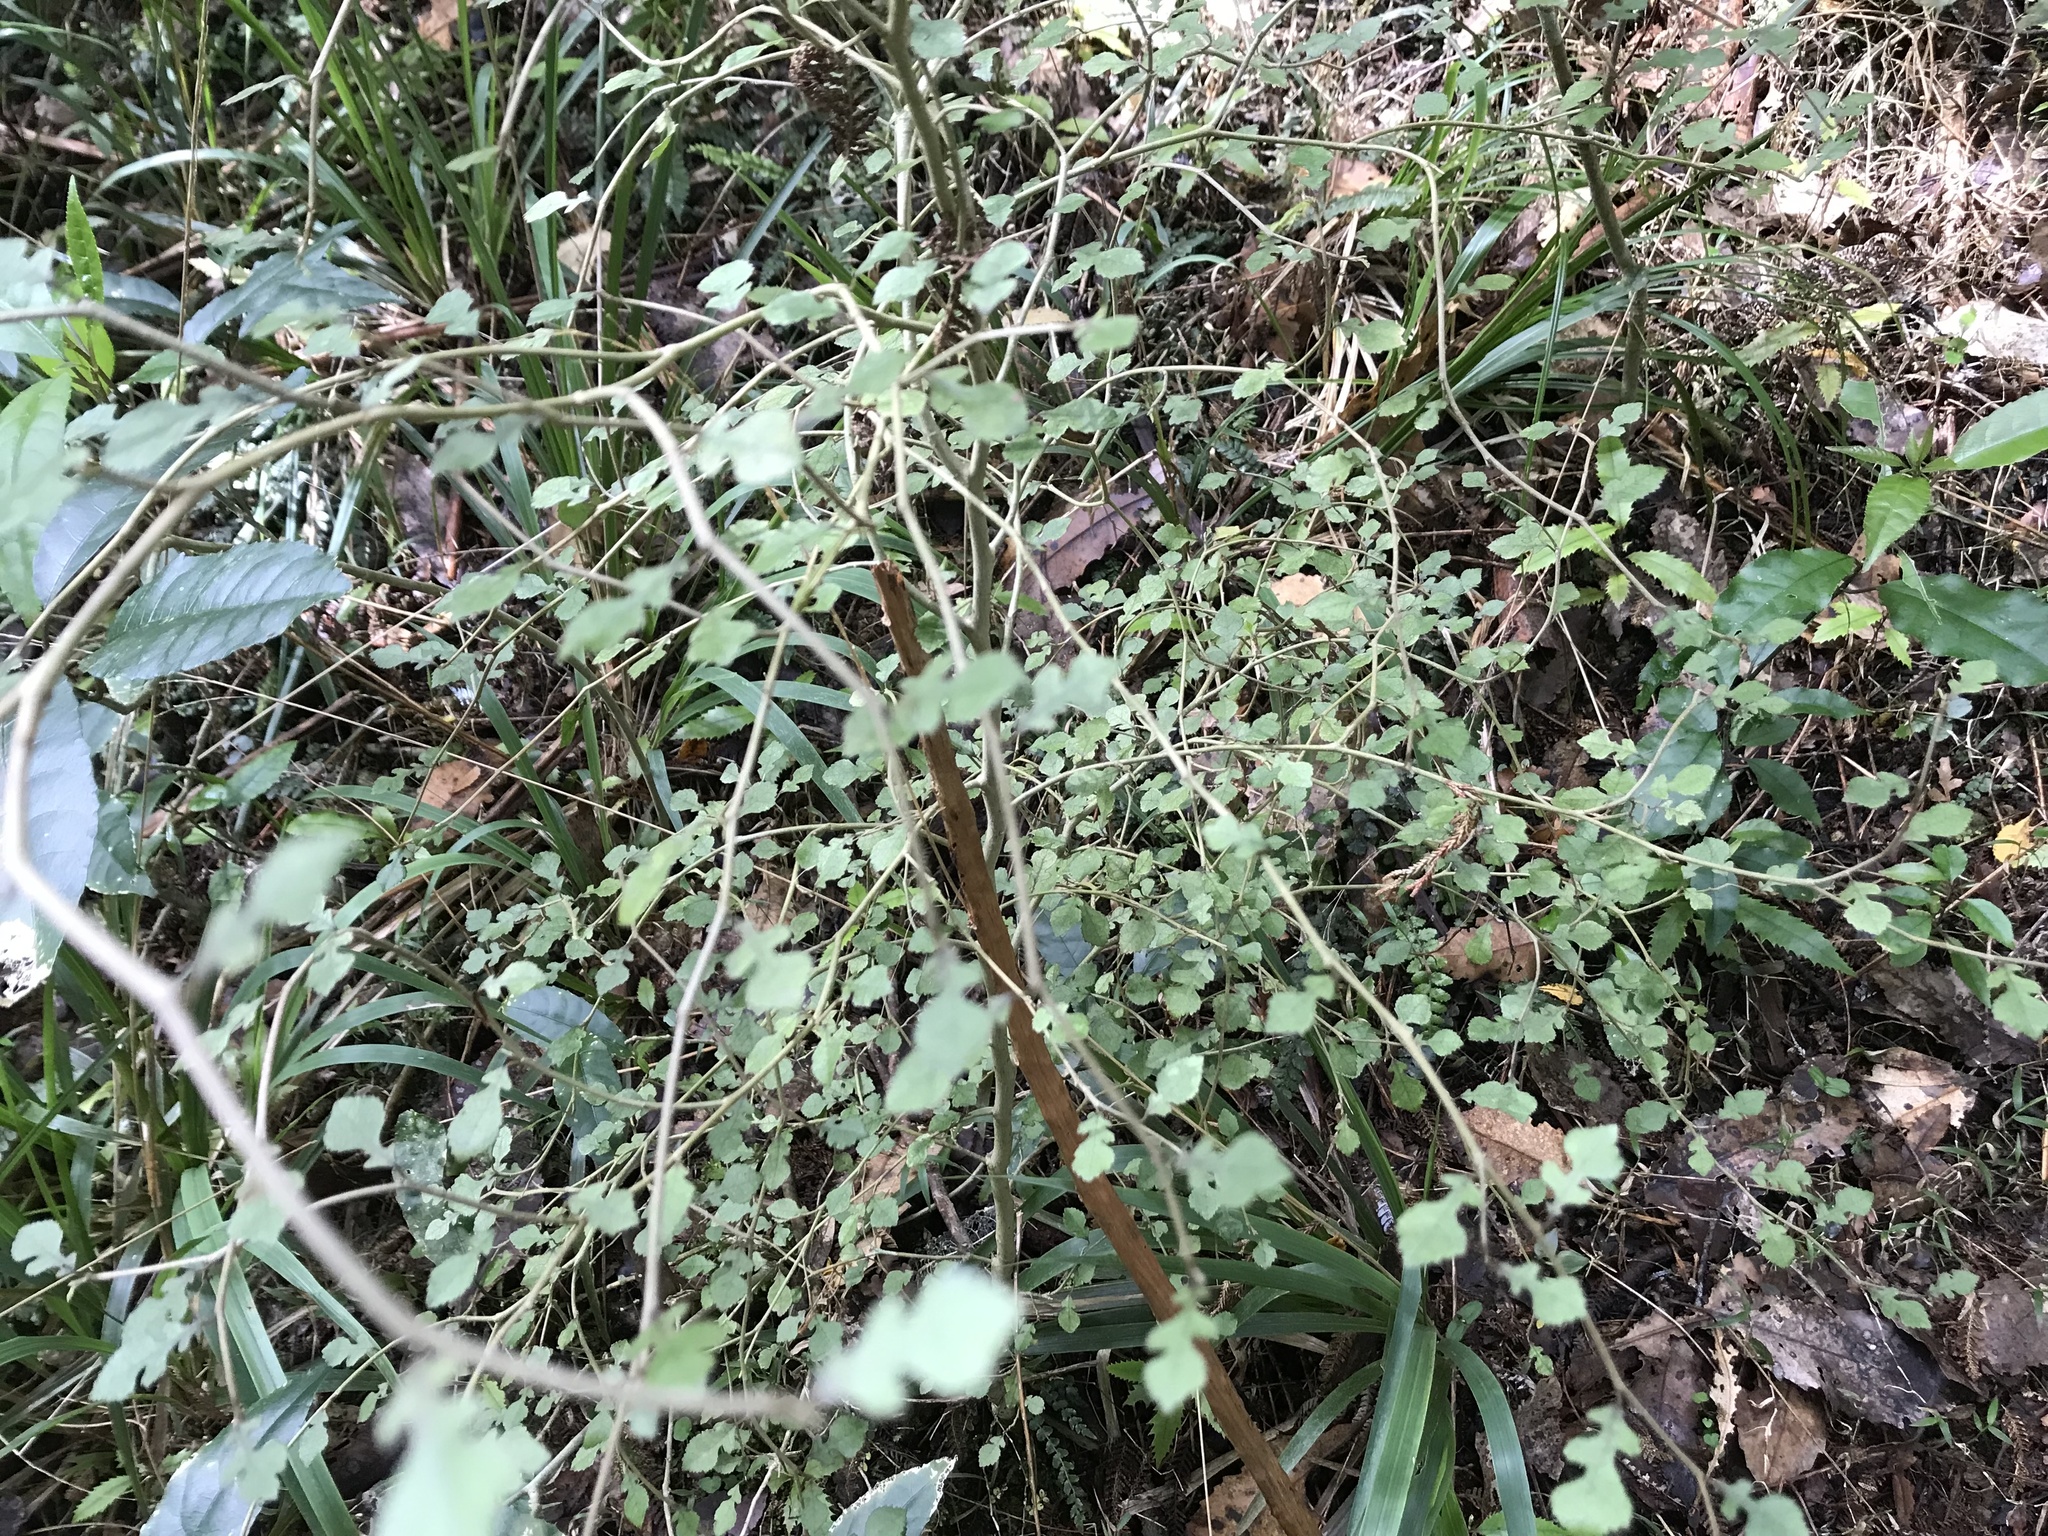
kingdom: Plantae
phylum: Tracheophyta
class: Magnoliopsida
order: Rosales
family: Moraceae
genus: Paratrophis
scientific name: Paratrophis microphylla
